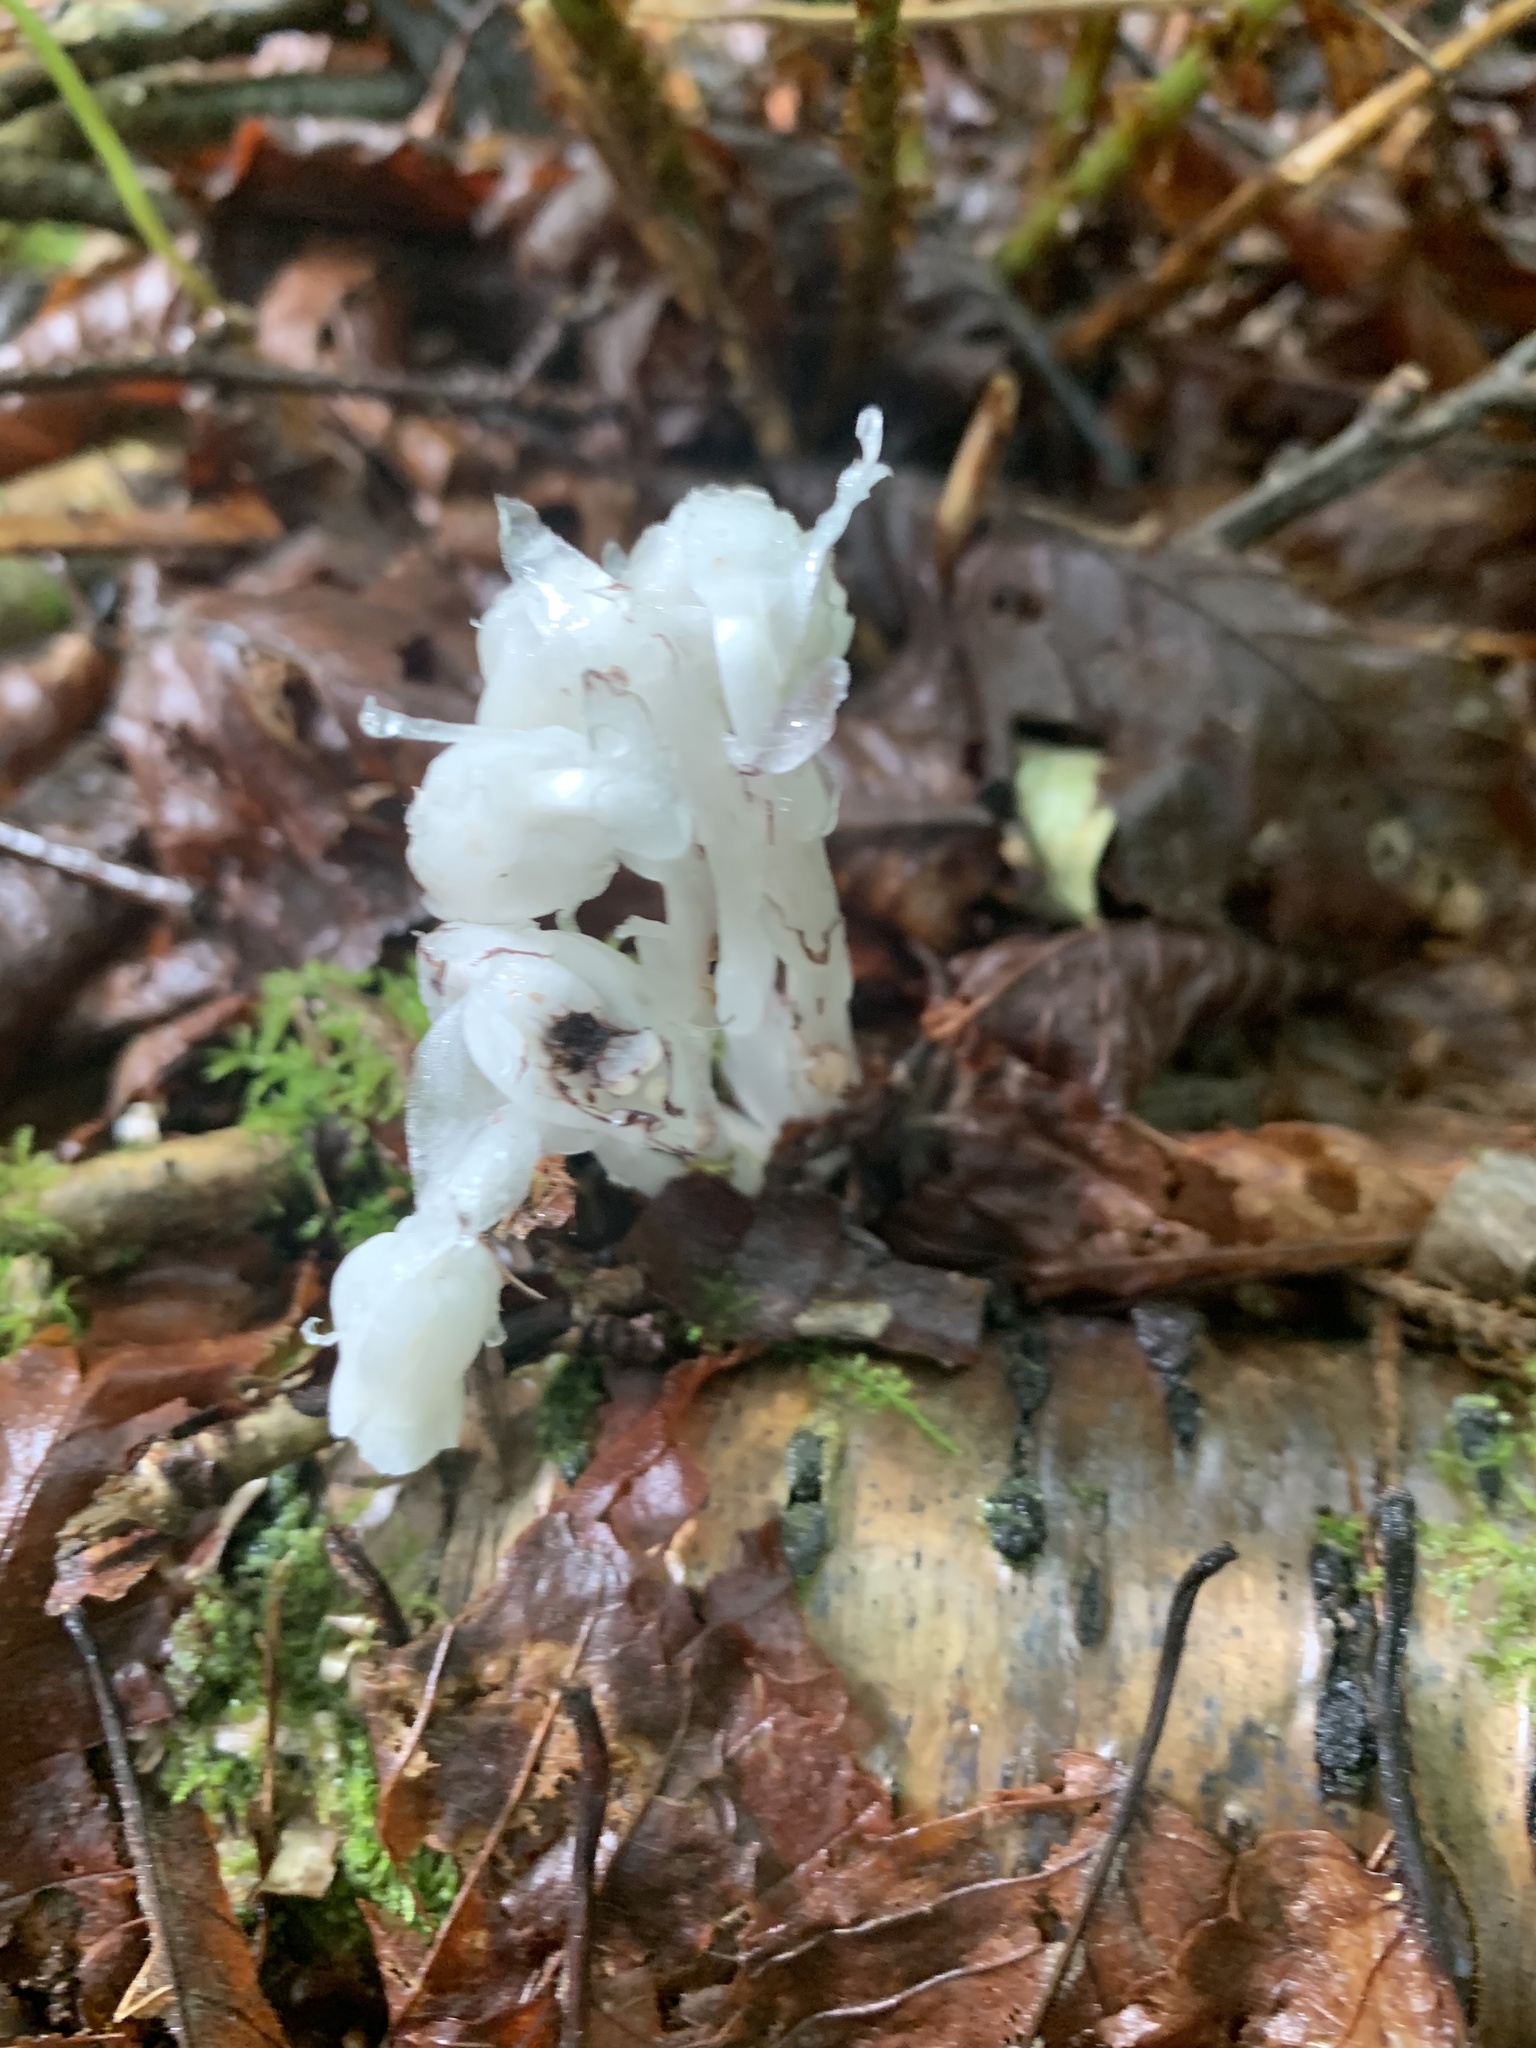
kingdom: Plantae
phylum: Tracheophyta
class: Magnoliopsida
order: Ericales
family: Ericaceae
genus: Monotropa
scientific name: Monotropa uniflora
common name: Convulsion root
